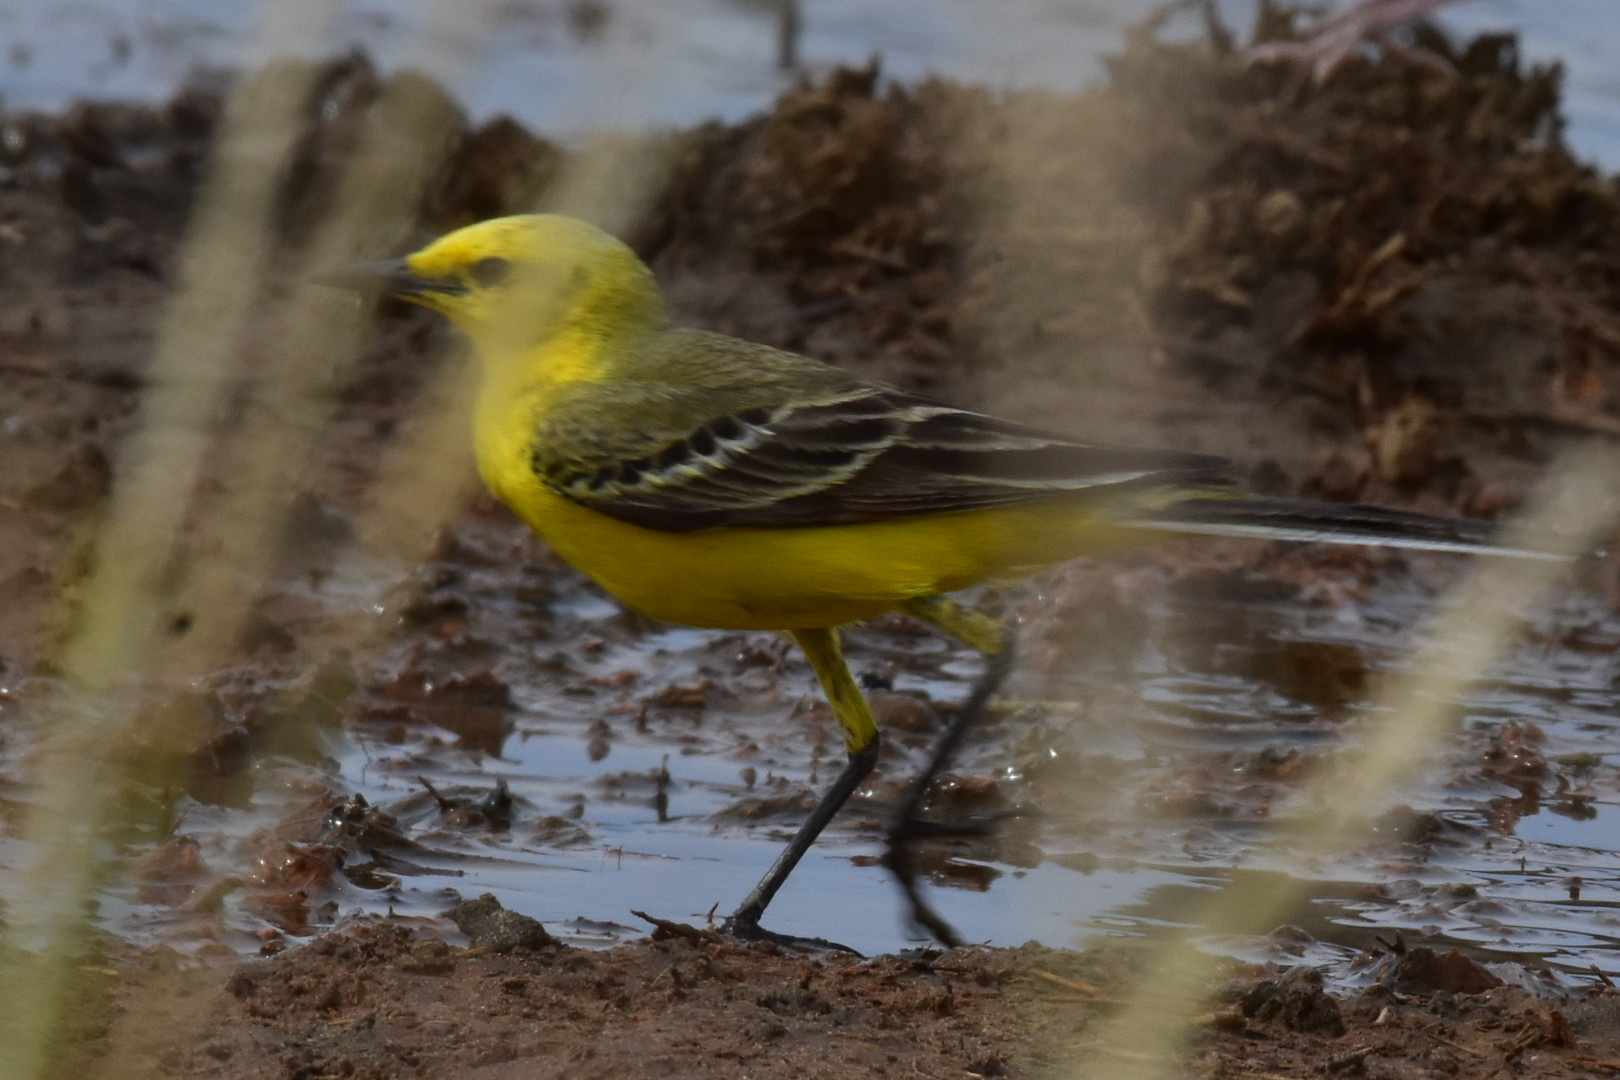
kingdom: Animalia
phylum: Chordata
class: Aves
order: Passeriformes
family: Motacillidae
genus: Motacilla
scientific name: Motacilla flava
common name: Western yellow wagtail
